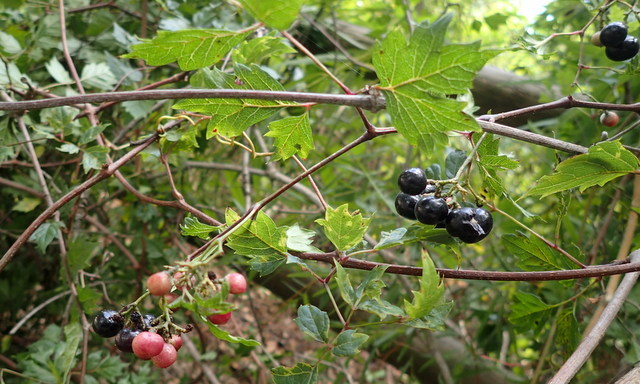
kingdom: Plantae
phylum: Tracheophyta
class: Magnoliopsida
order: Vitales
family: Vitaceae
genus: Nekemias
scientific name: Nekemias arborea
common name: Peppervine
